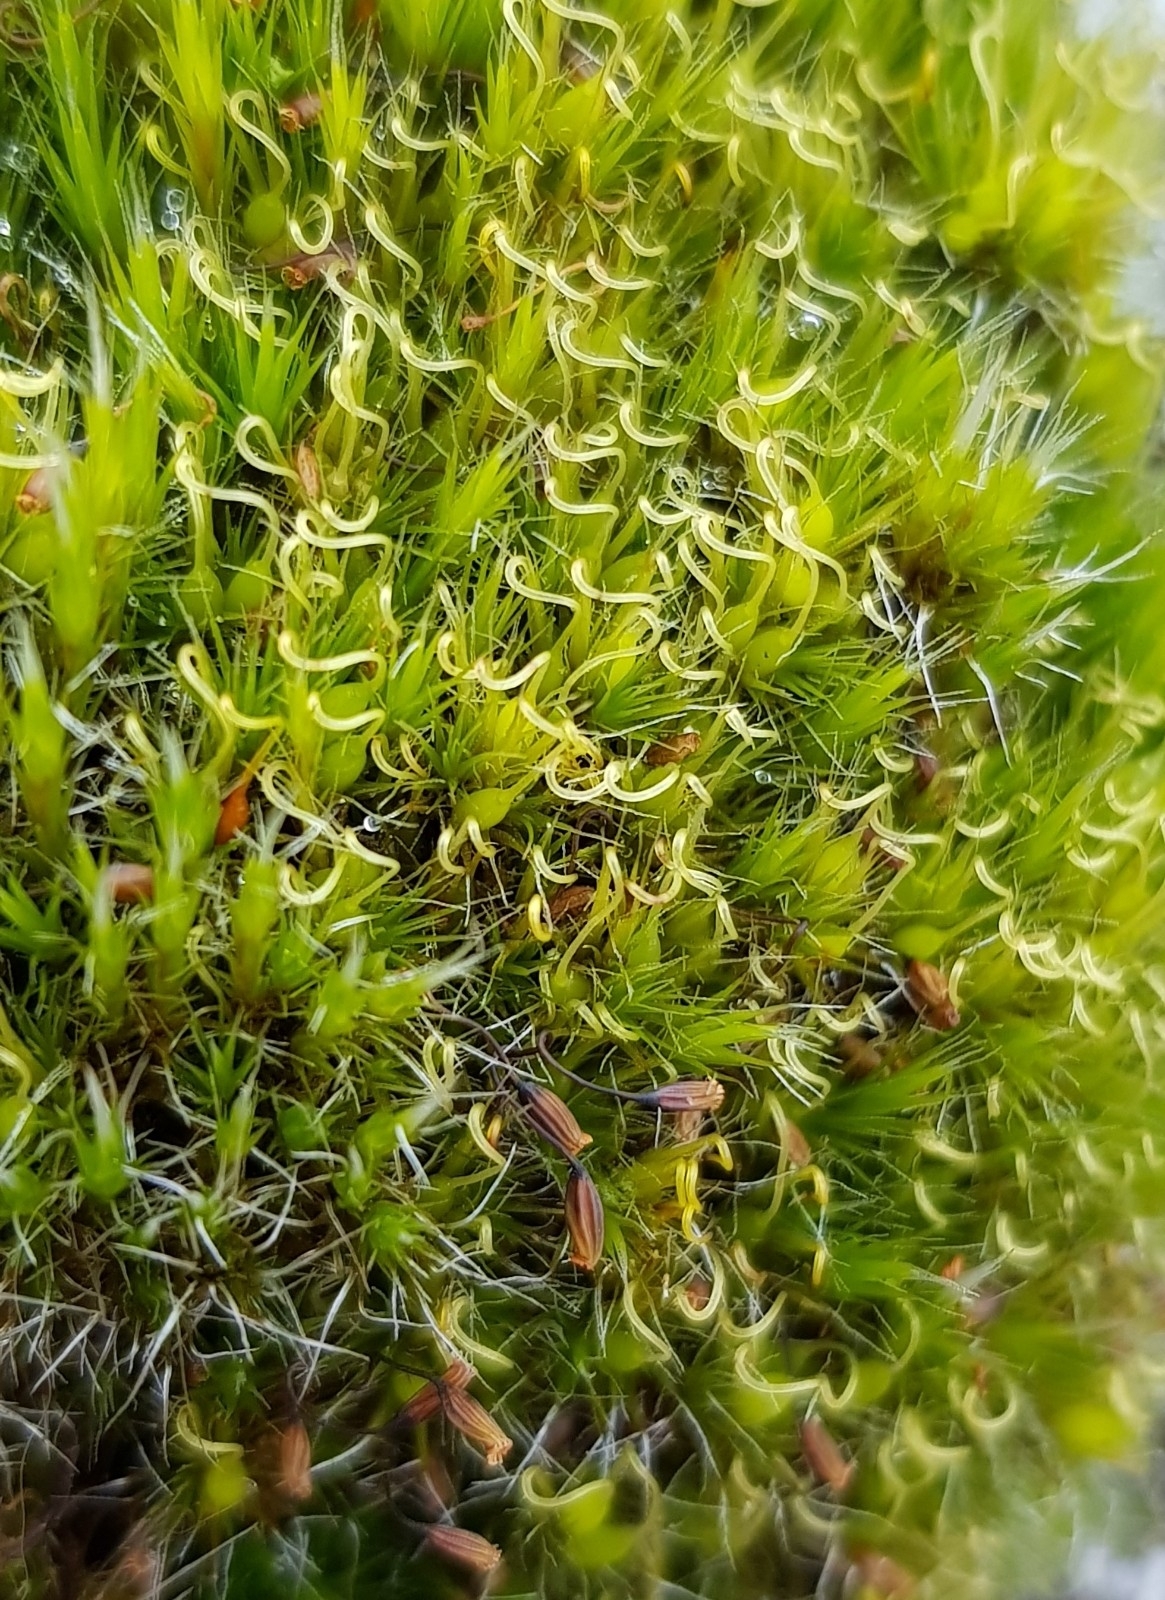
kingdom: Plantae
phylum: Bryophyta
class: Bryopsida
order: Dicranales
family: Leucobryaceae
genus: Campylopus
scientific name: Campylopus introflexus
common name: Heath star moss
